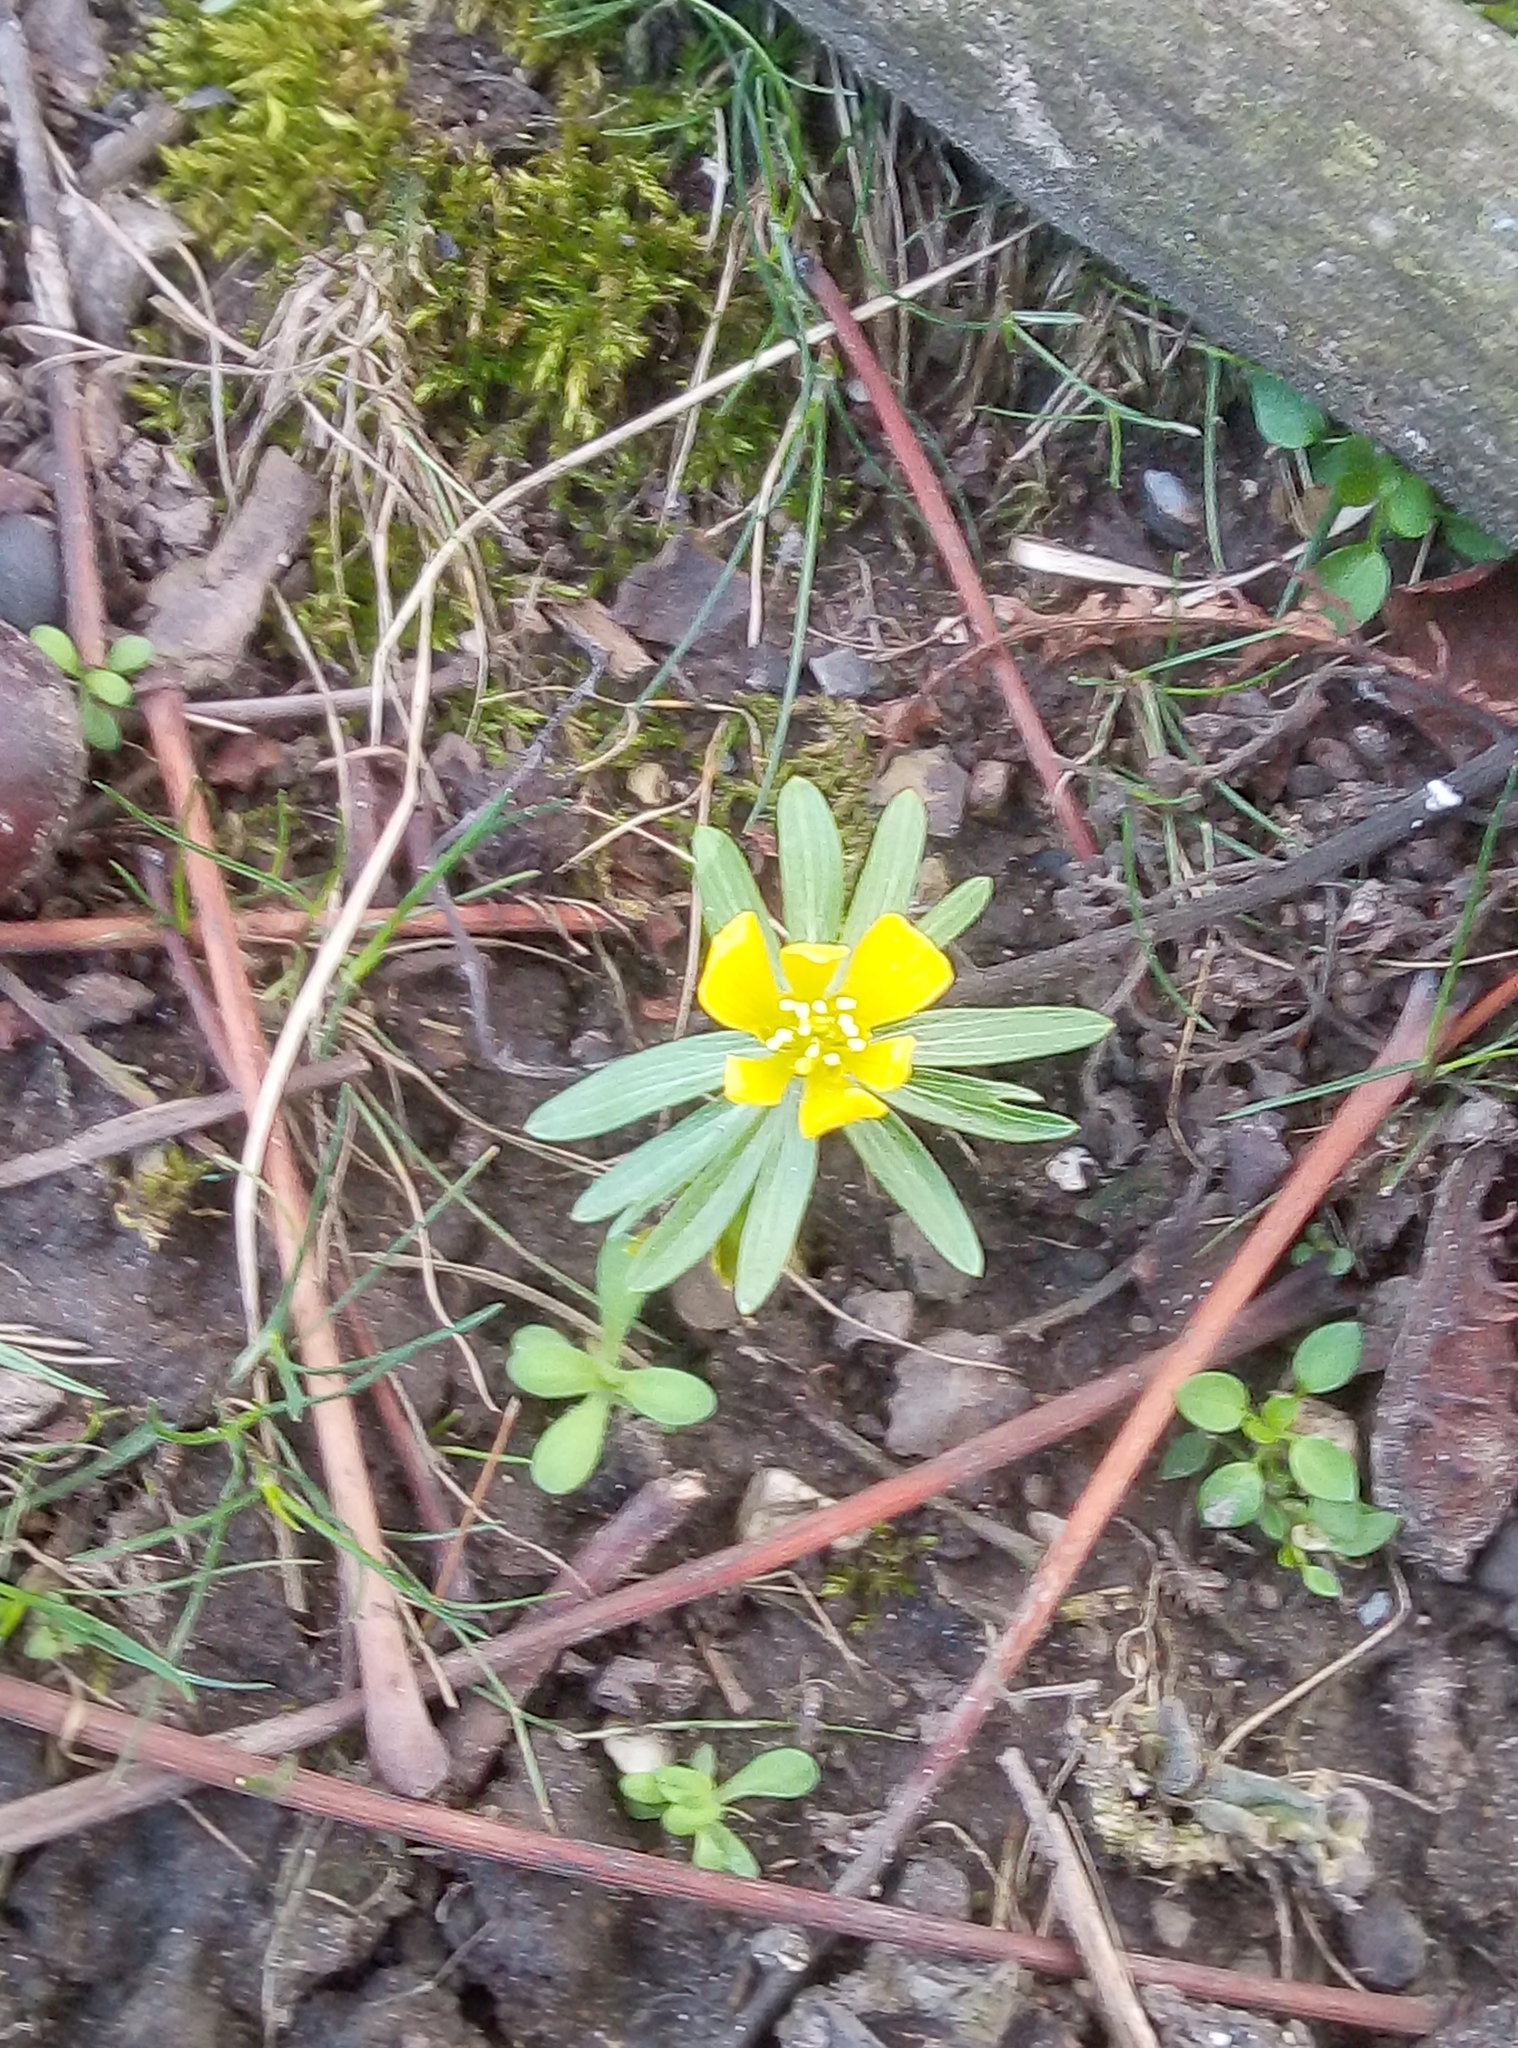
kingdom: Plantae
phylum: Tracheophyta
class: Magnoliopsida
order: Ranunculales
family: Ranunculaceae
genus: Eranthis
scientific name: Eranthis hyemalis
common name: Winter aconite
